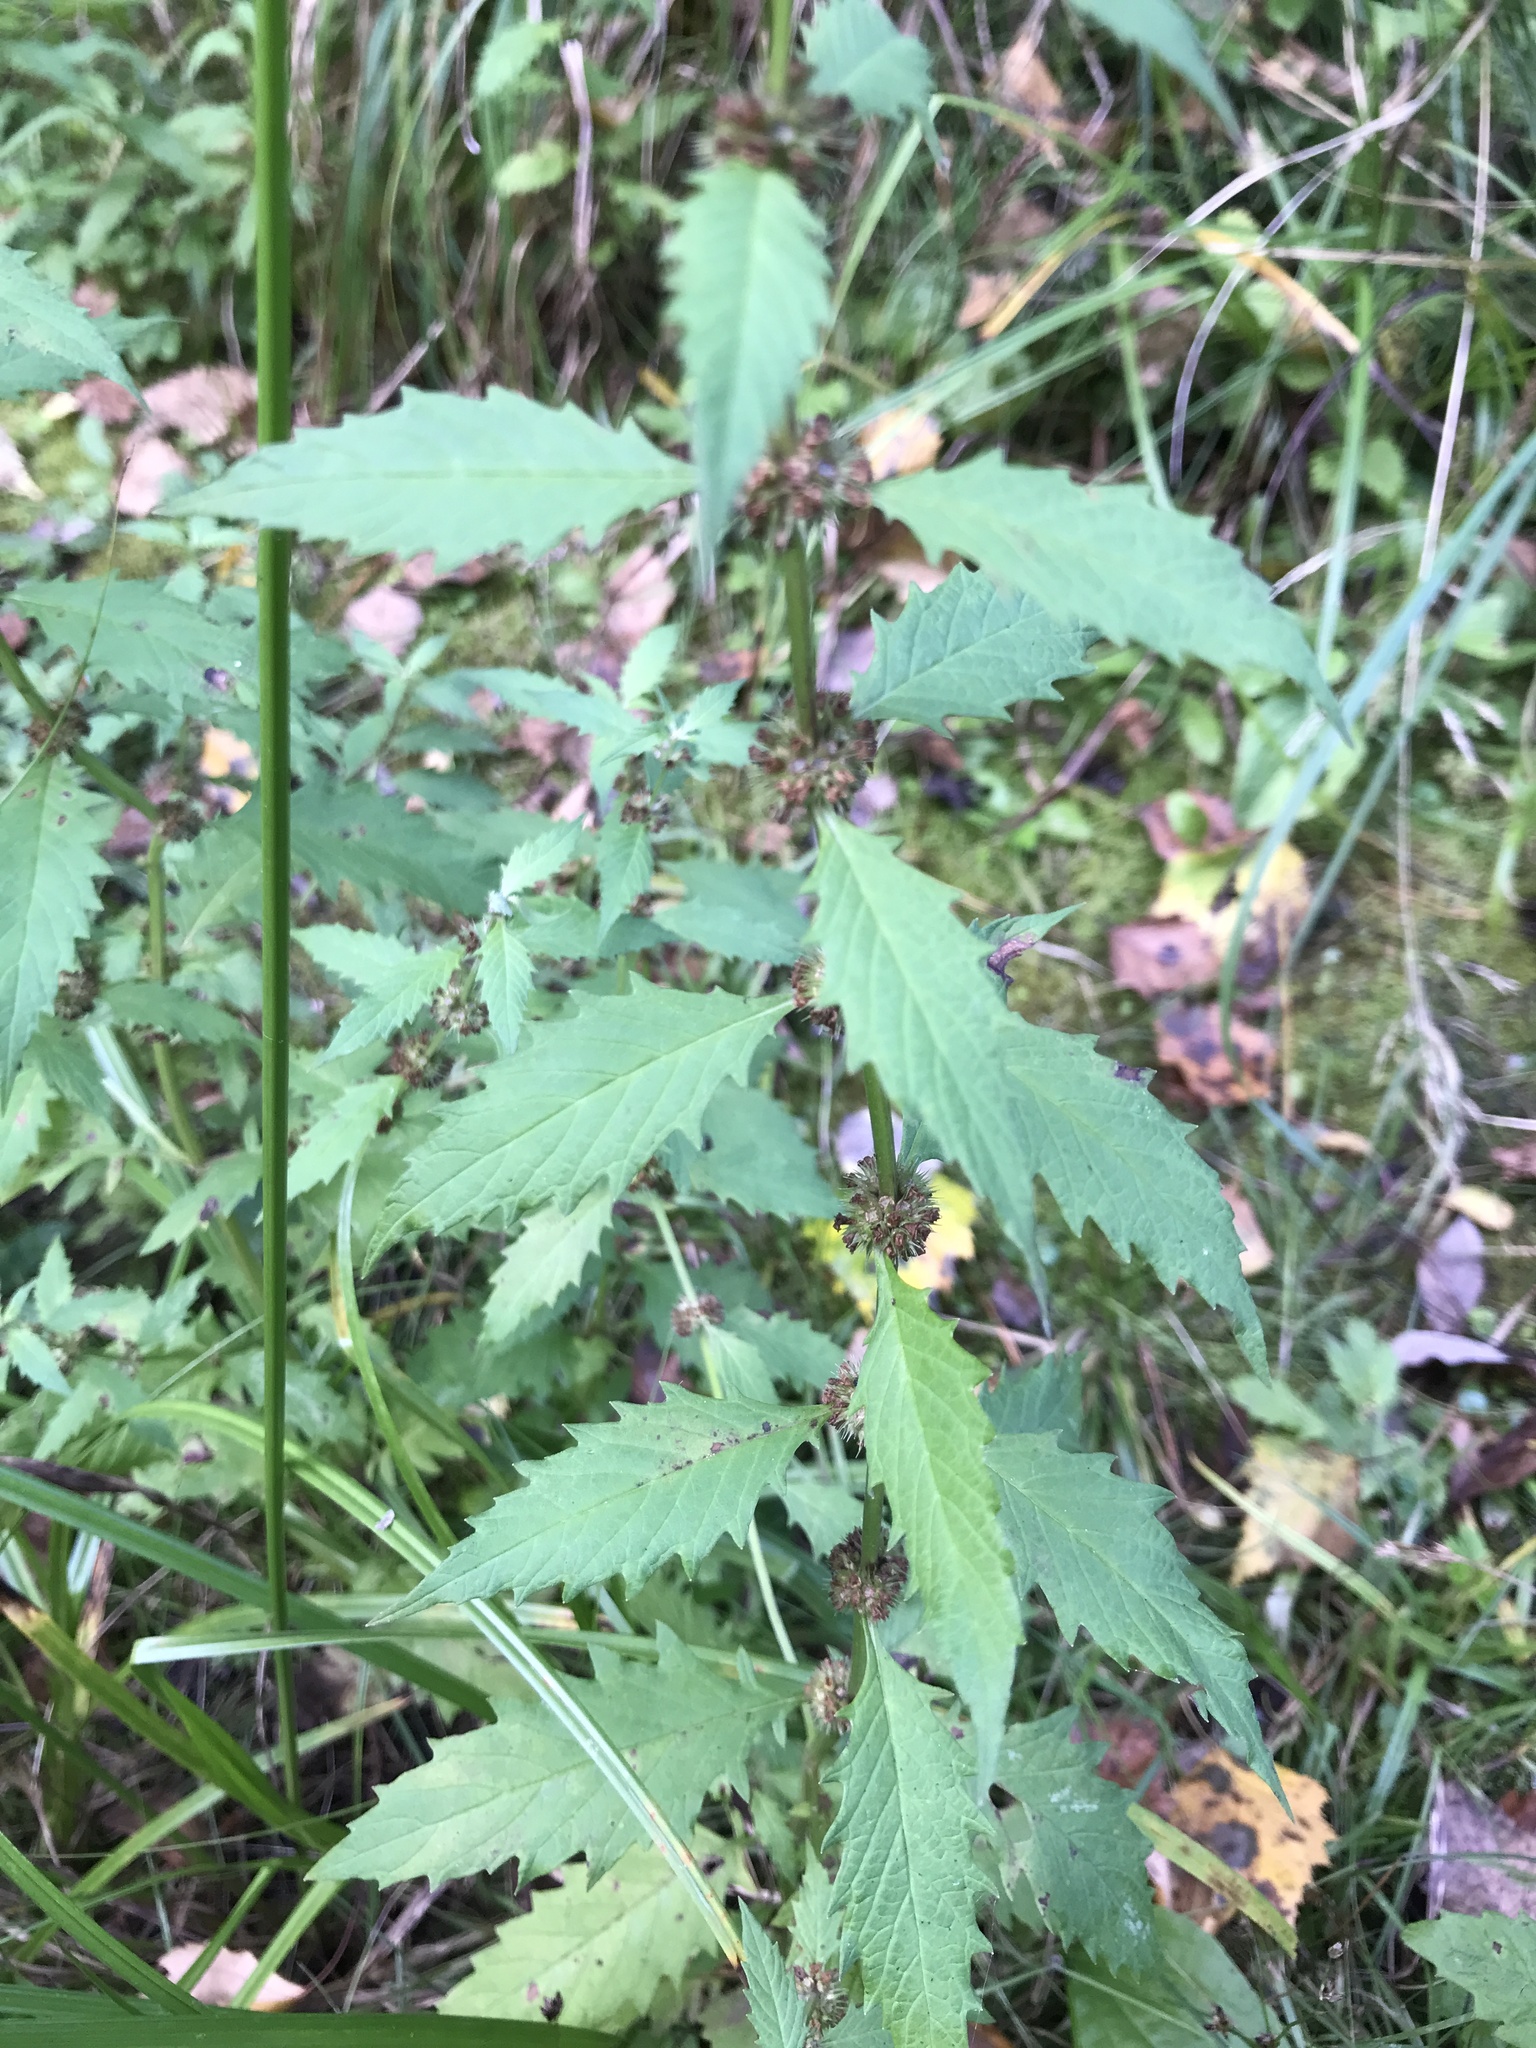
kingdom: Plantae
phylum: Tracheophyta
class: Magnoliopsida
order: Lamiales
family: Lamiaceae
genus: Lycopus
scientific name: Lycopus europaeus
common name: European bugleweed
